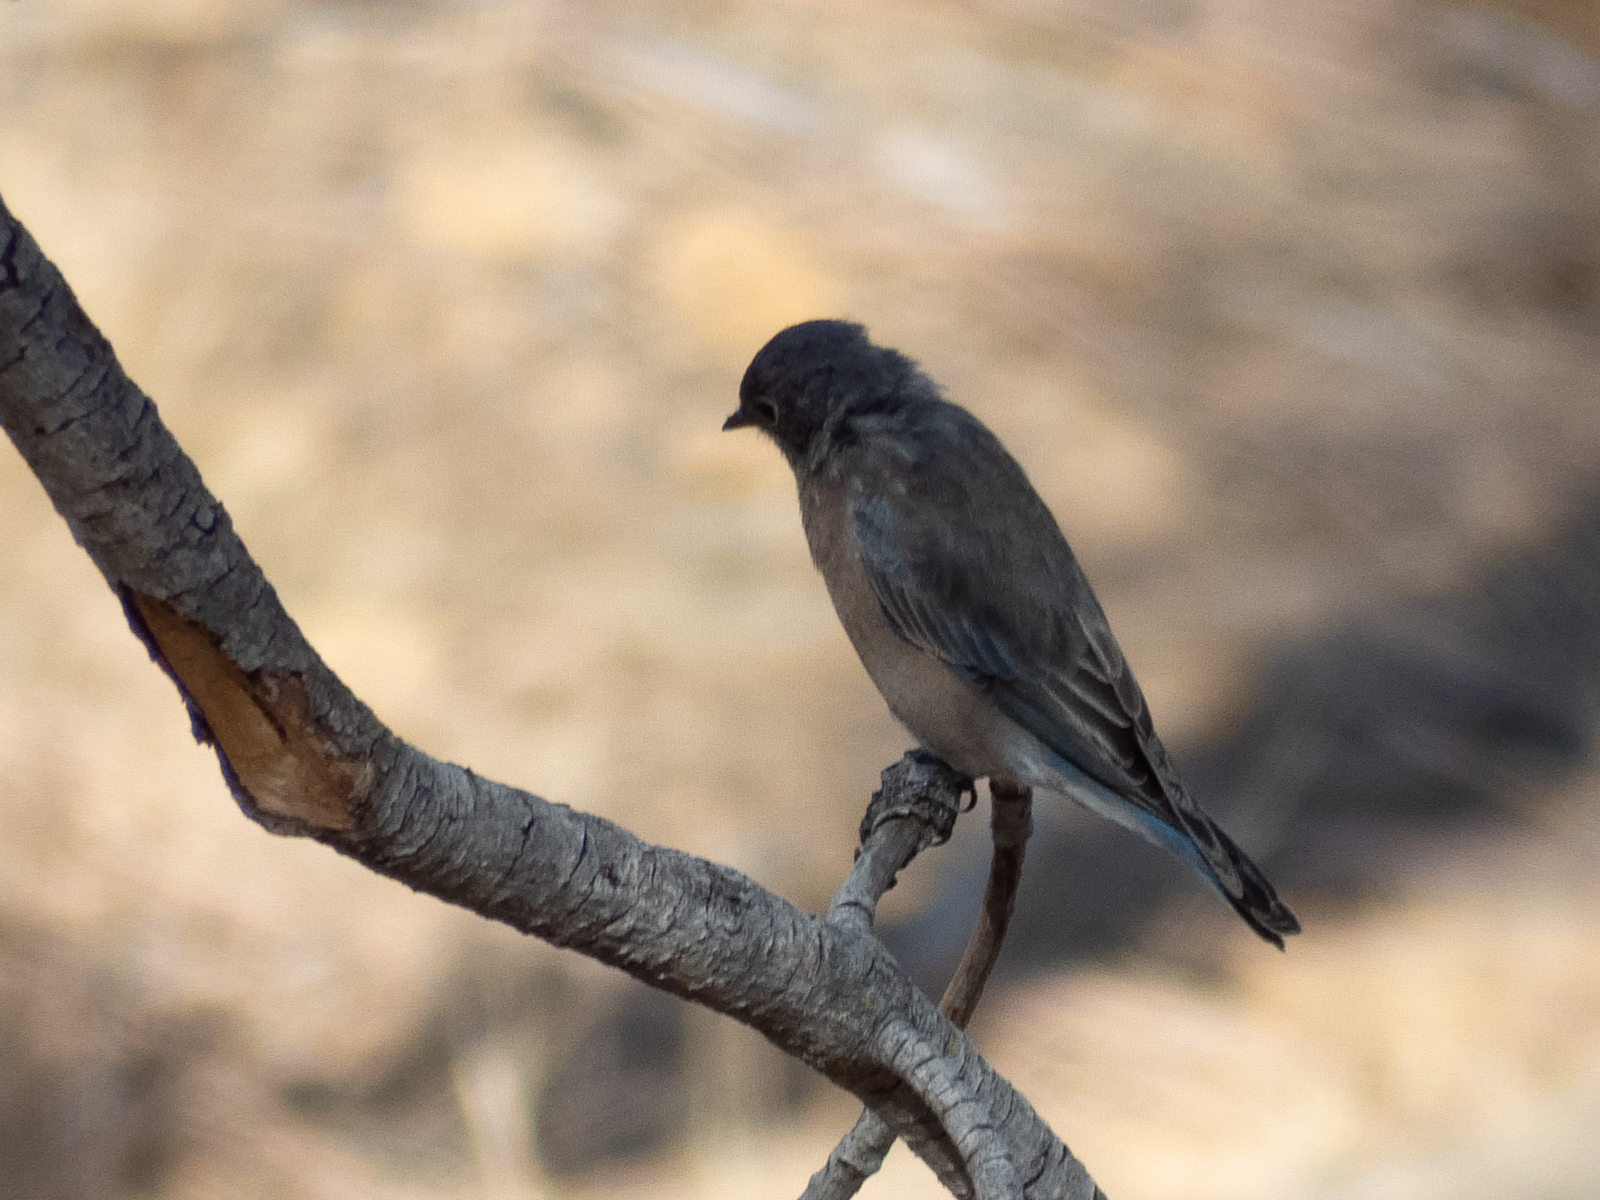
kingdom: Animalia
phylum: Chordata
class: Aves
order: Passeriformes
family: Turdidae
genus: Sialia
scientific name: Sialia mexicana
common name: Western bluebird
